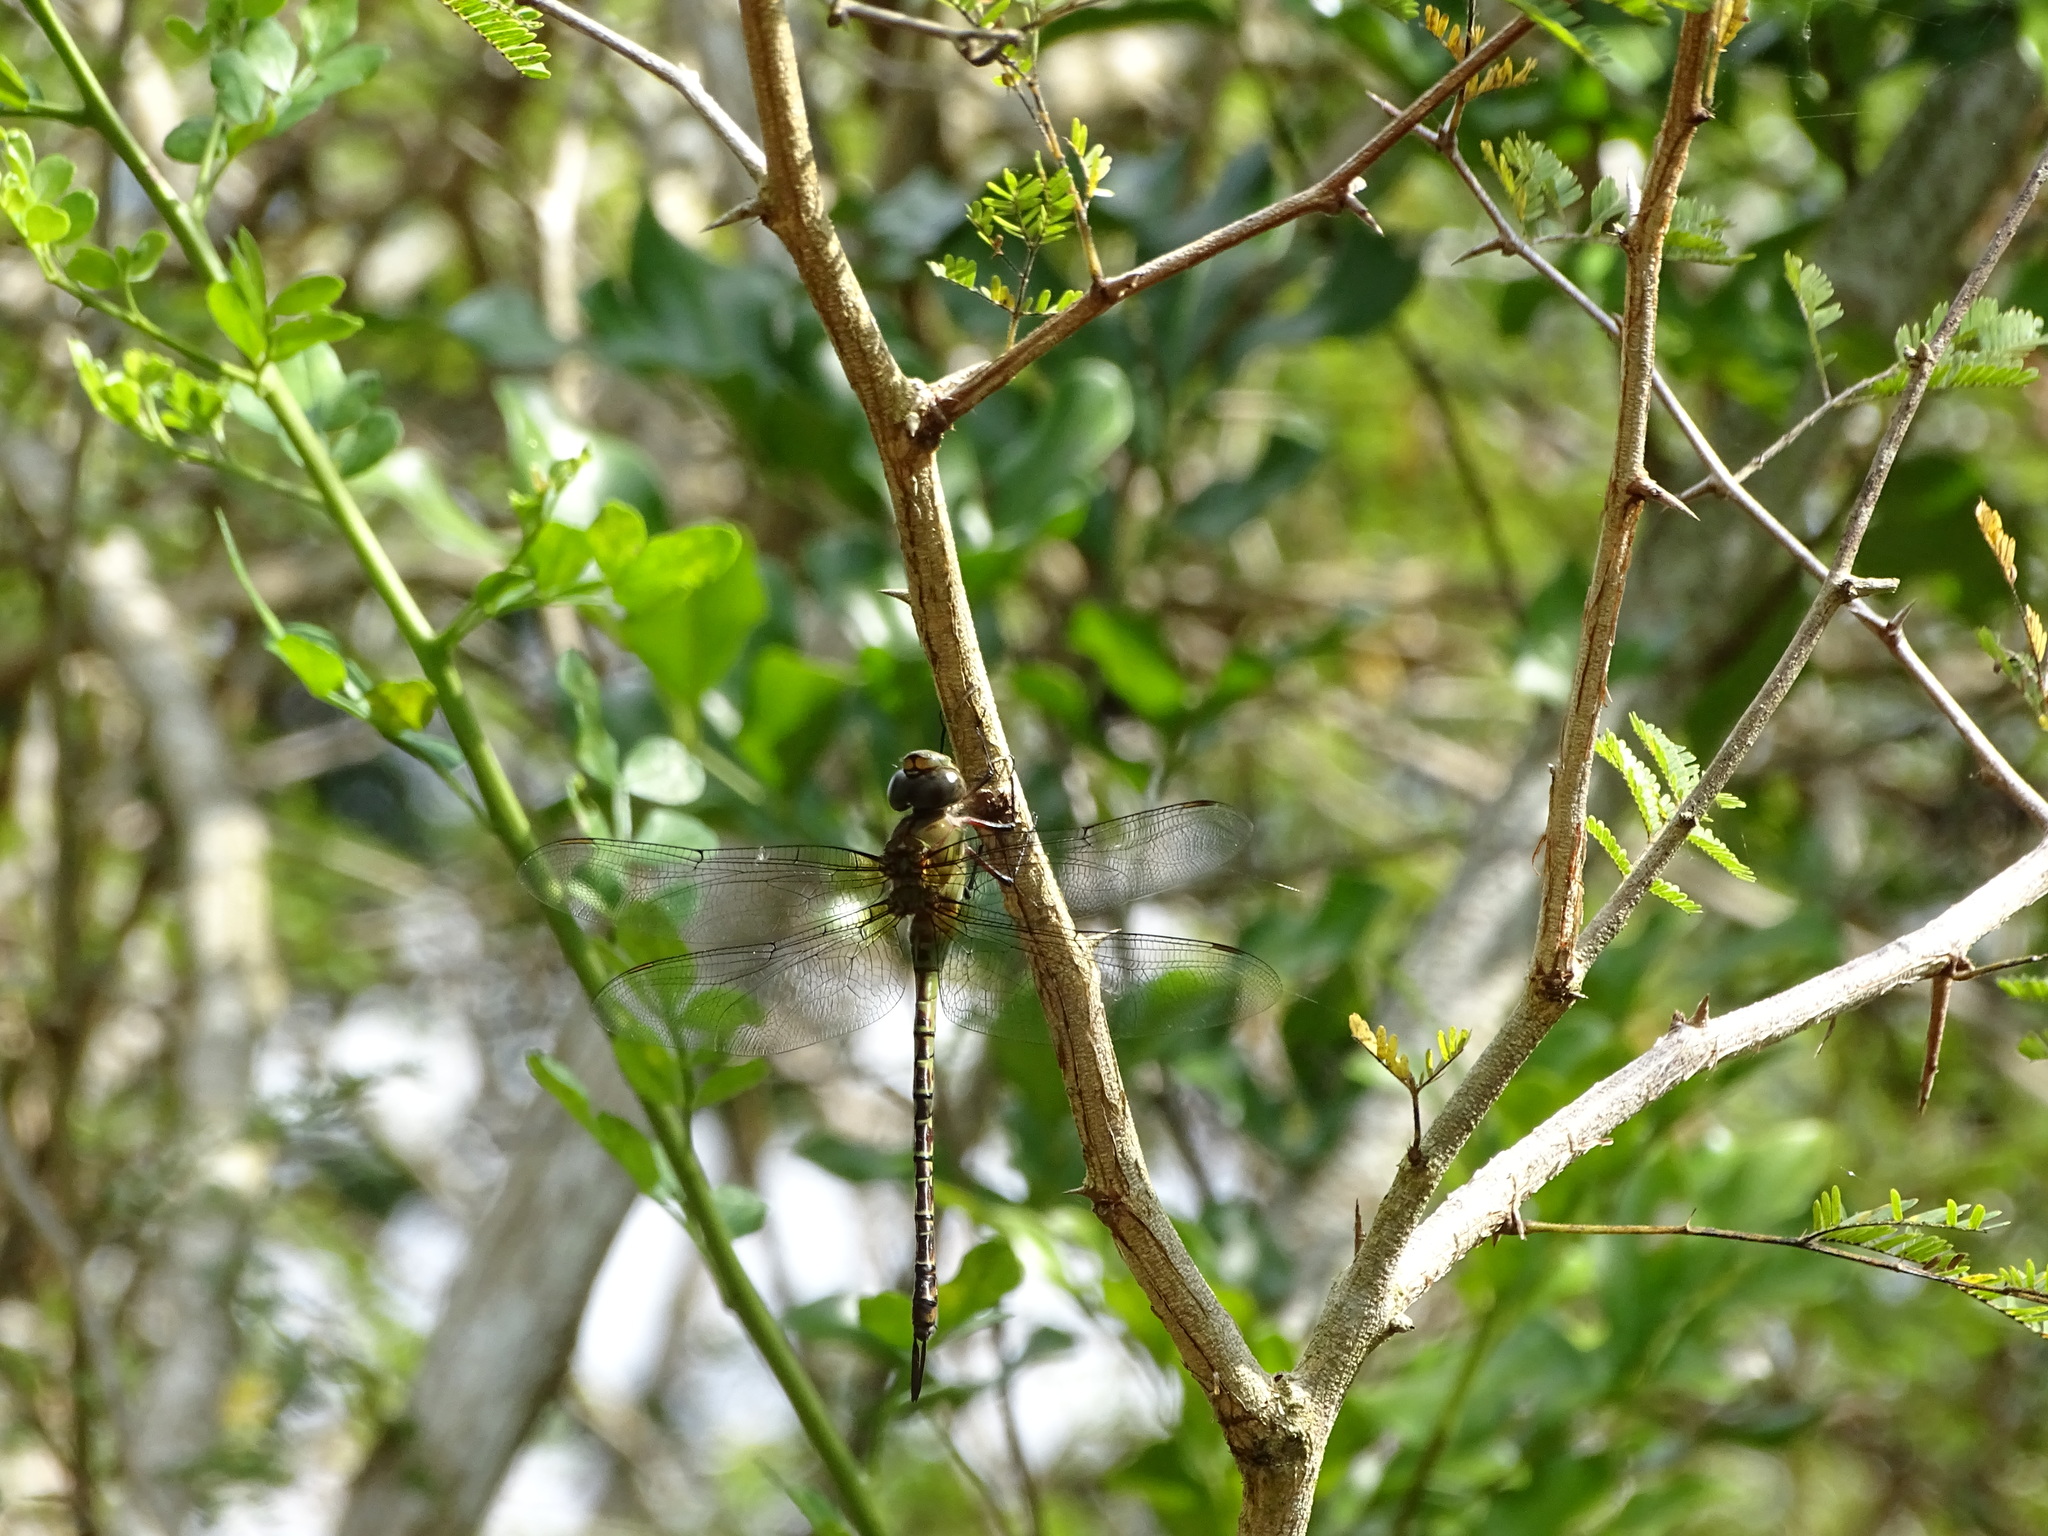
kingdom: Animalia
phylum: Arthropoda
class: Insecta
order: Odonata
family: Aeshnidae
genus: Coryphaeschna
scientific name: Coryphaeschna viriditas
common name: Mangrove darner
